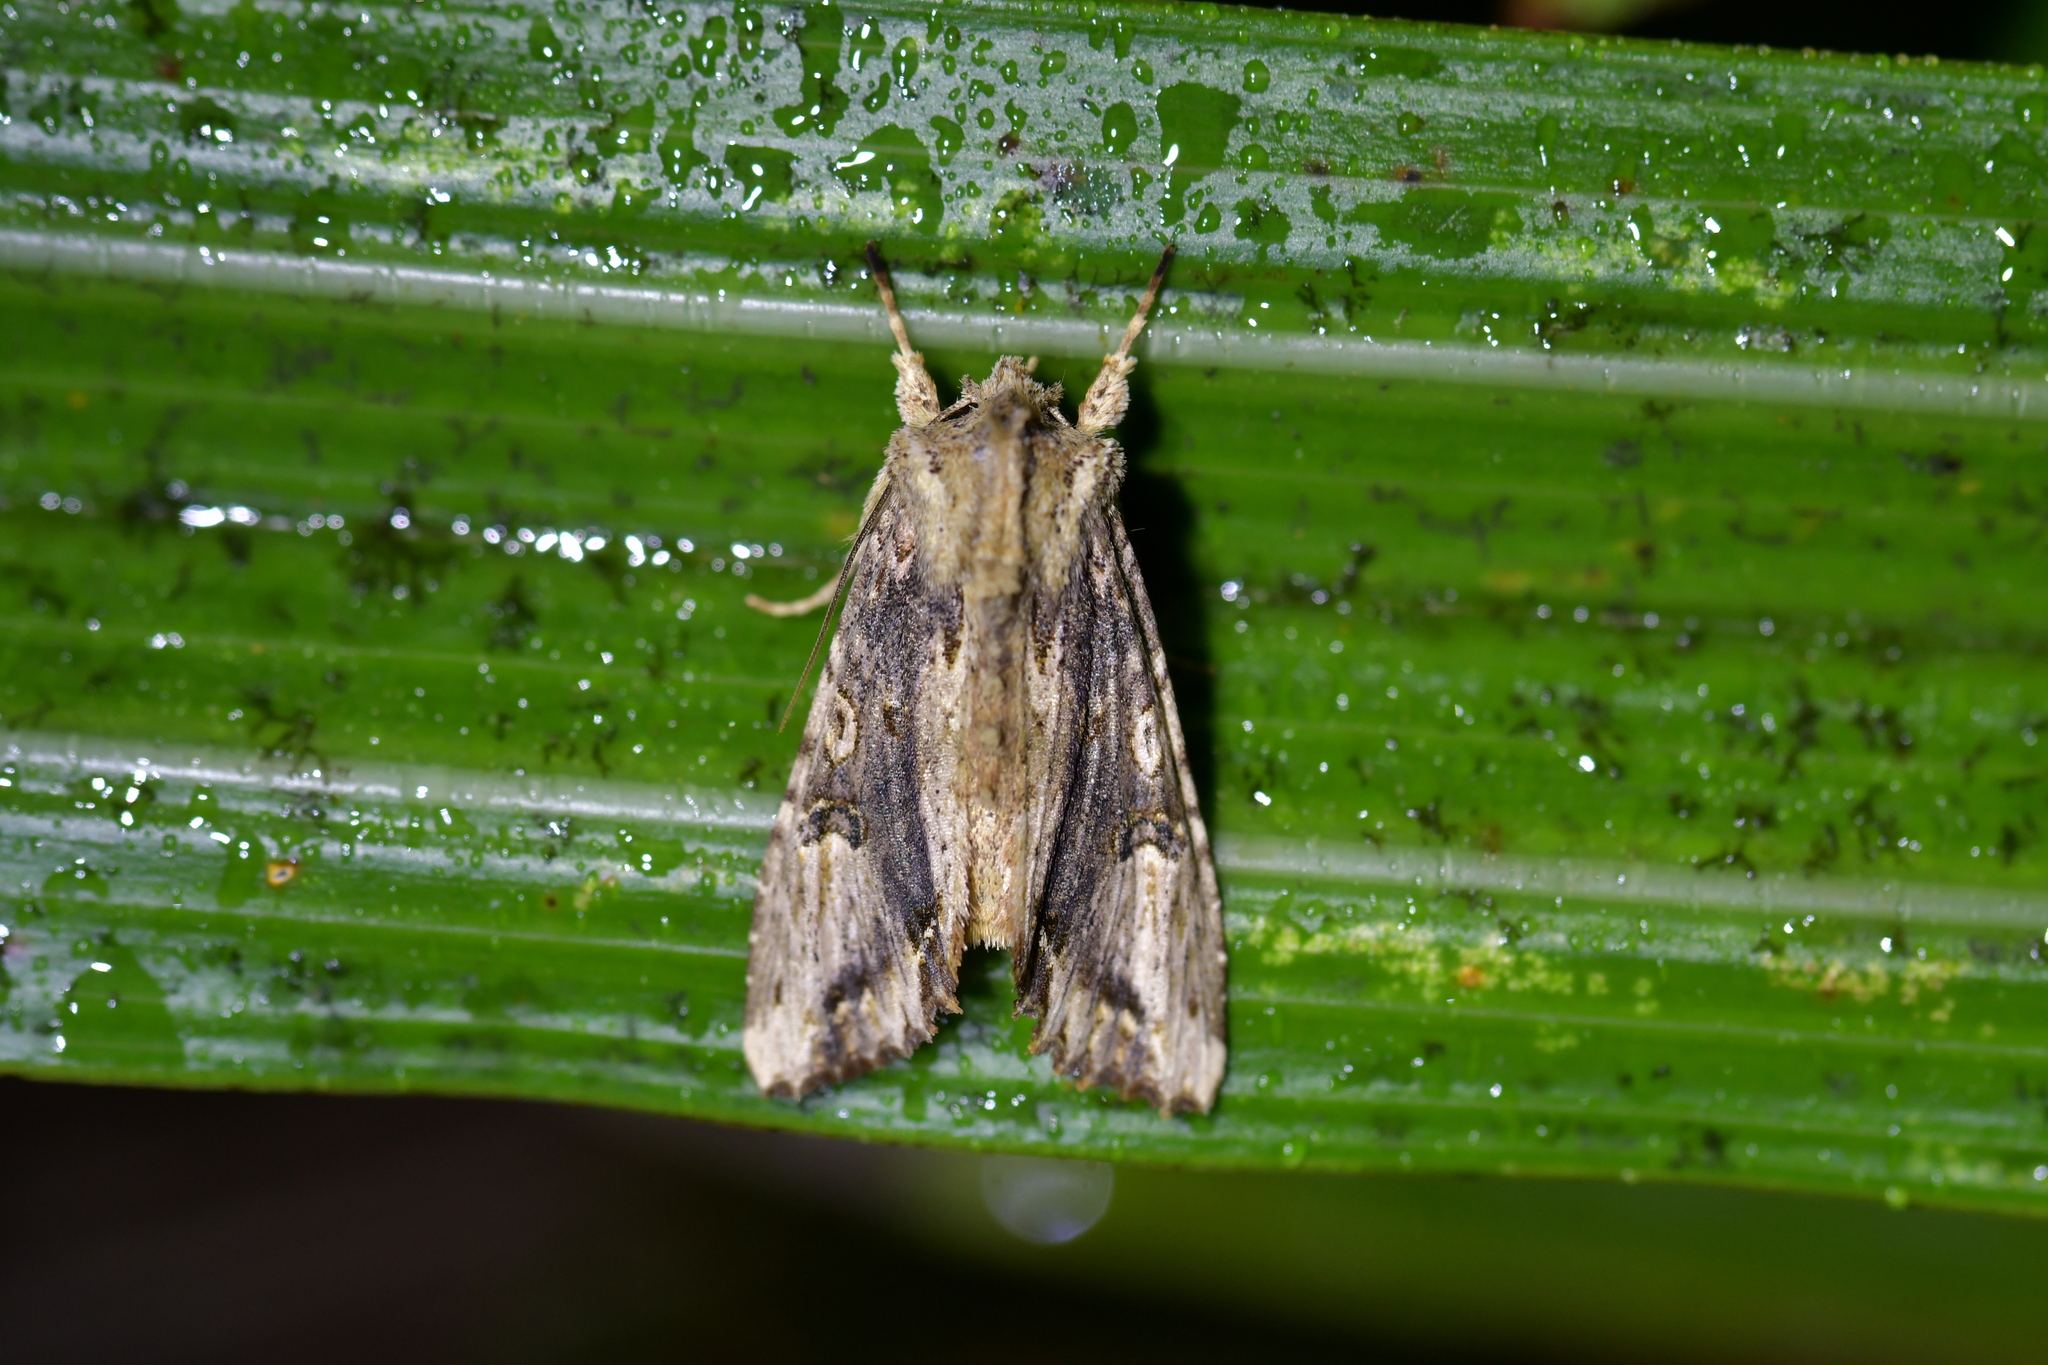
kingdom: Animalia
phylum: Arthropoda
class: Insecta
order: Lepidoptera
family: Noctuidae
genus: Meterana
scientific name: Meterana pascoei
